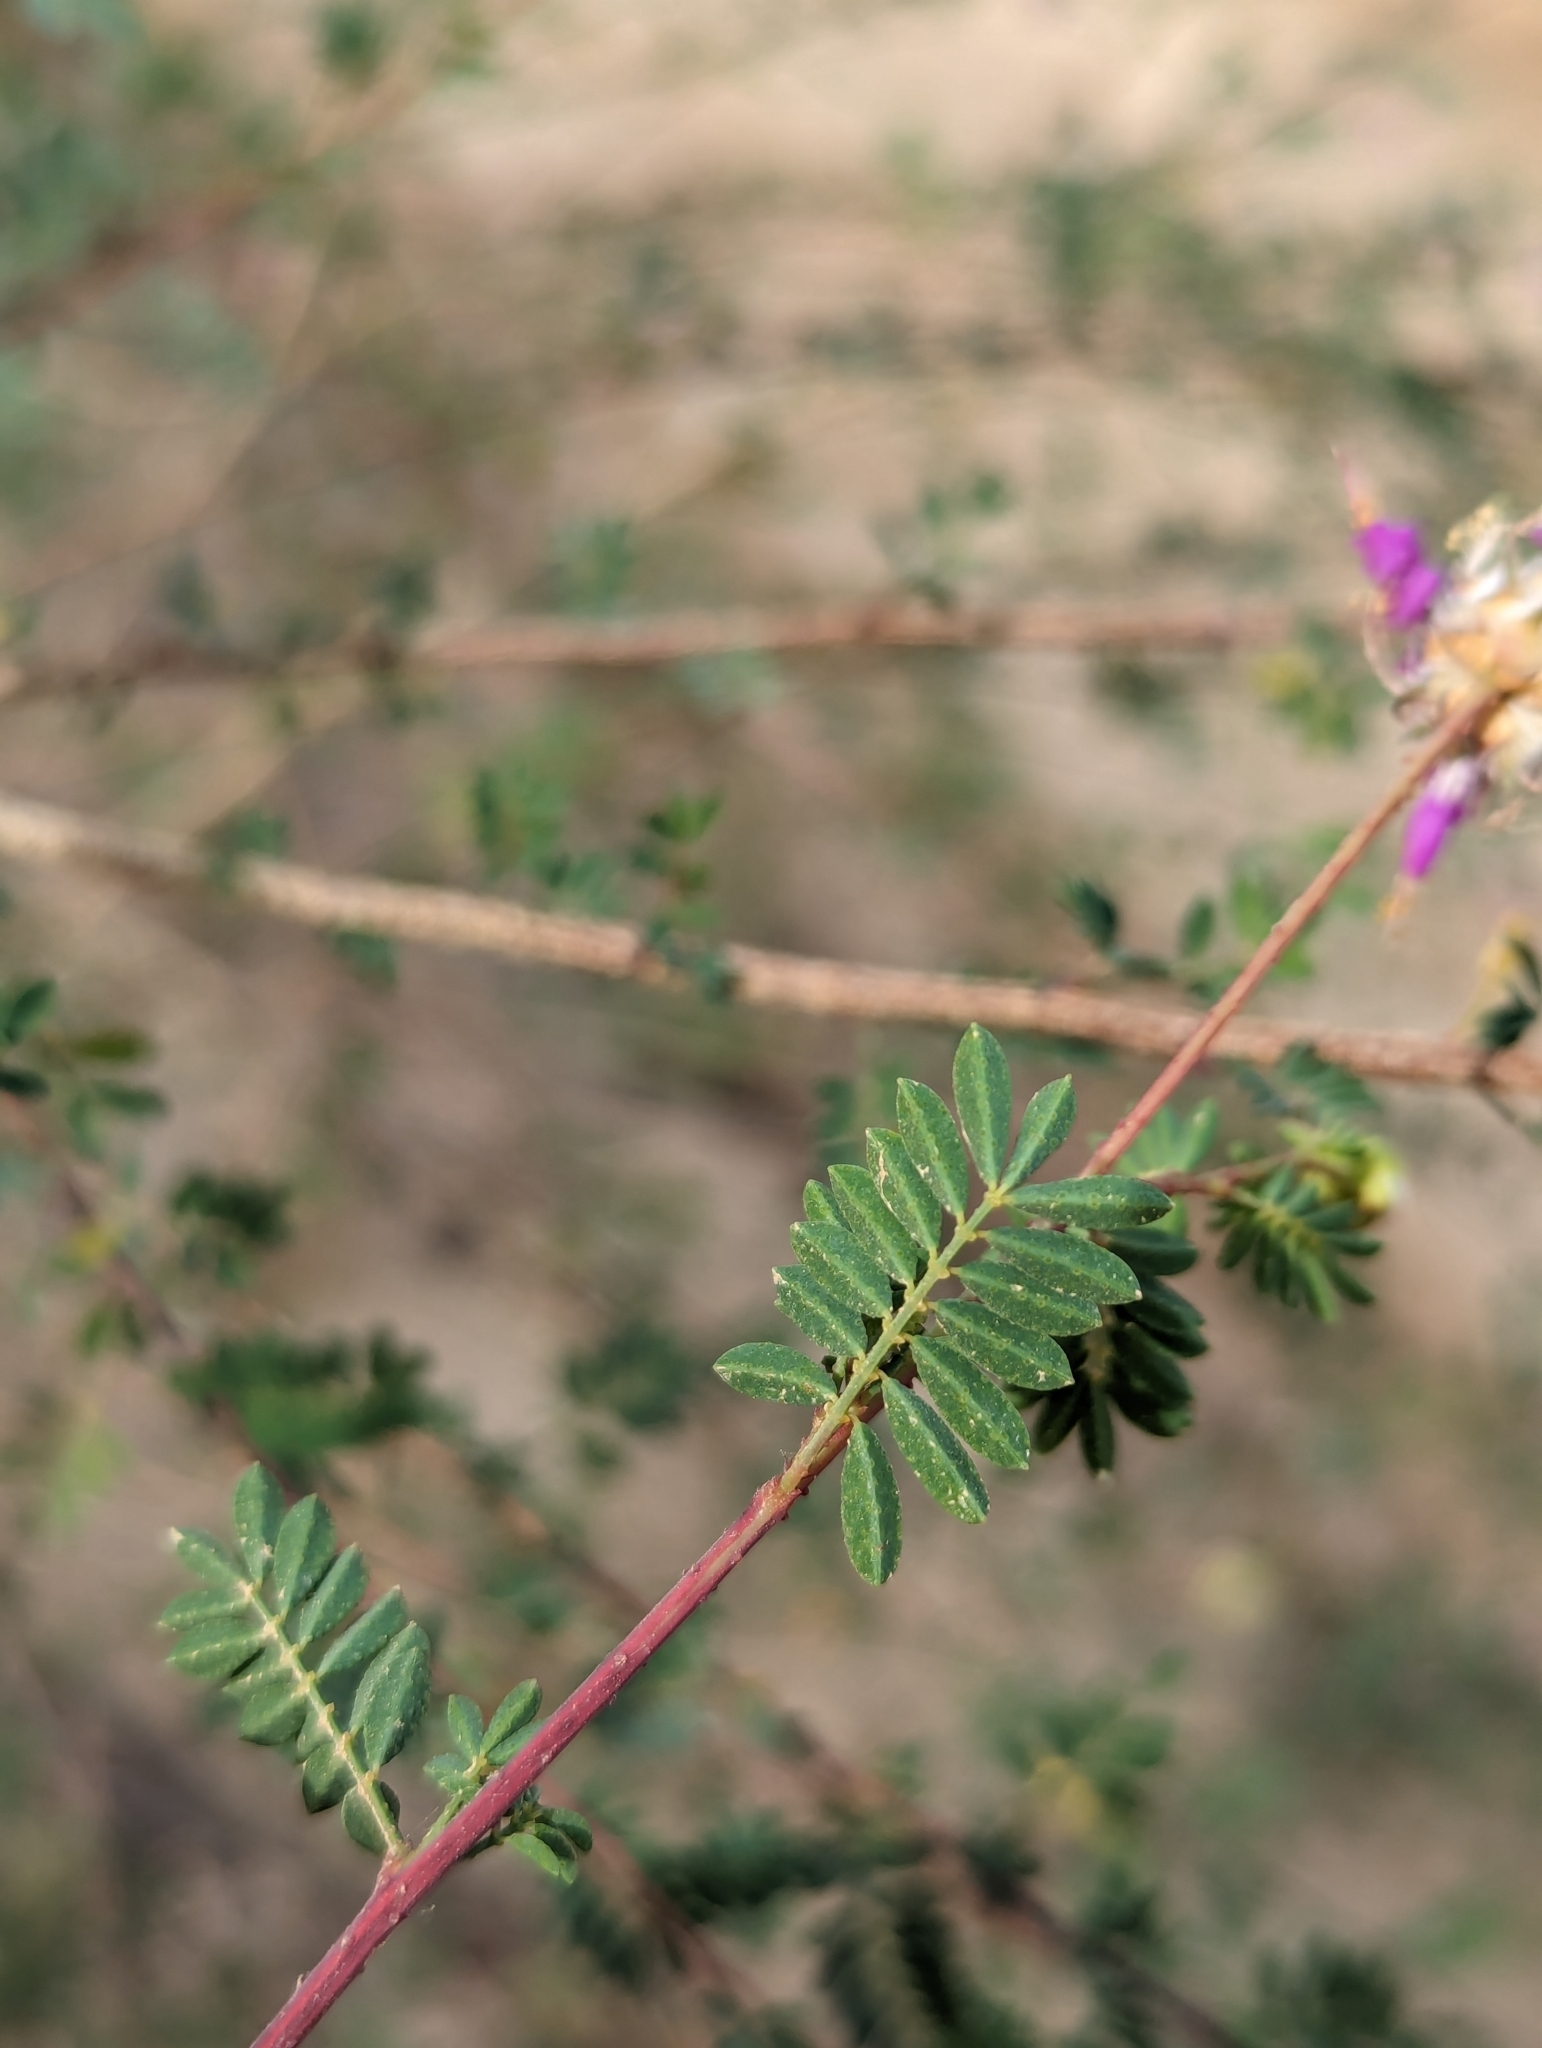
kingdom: Plantae
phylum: Tracheophyta
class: Magnoliopsida
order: Fabales
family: Fabaceae
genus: Dalea
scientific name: Dalea trochilina
